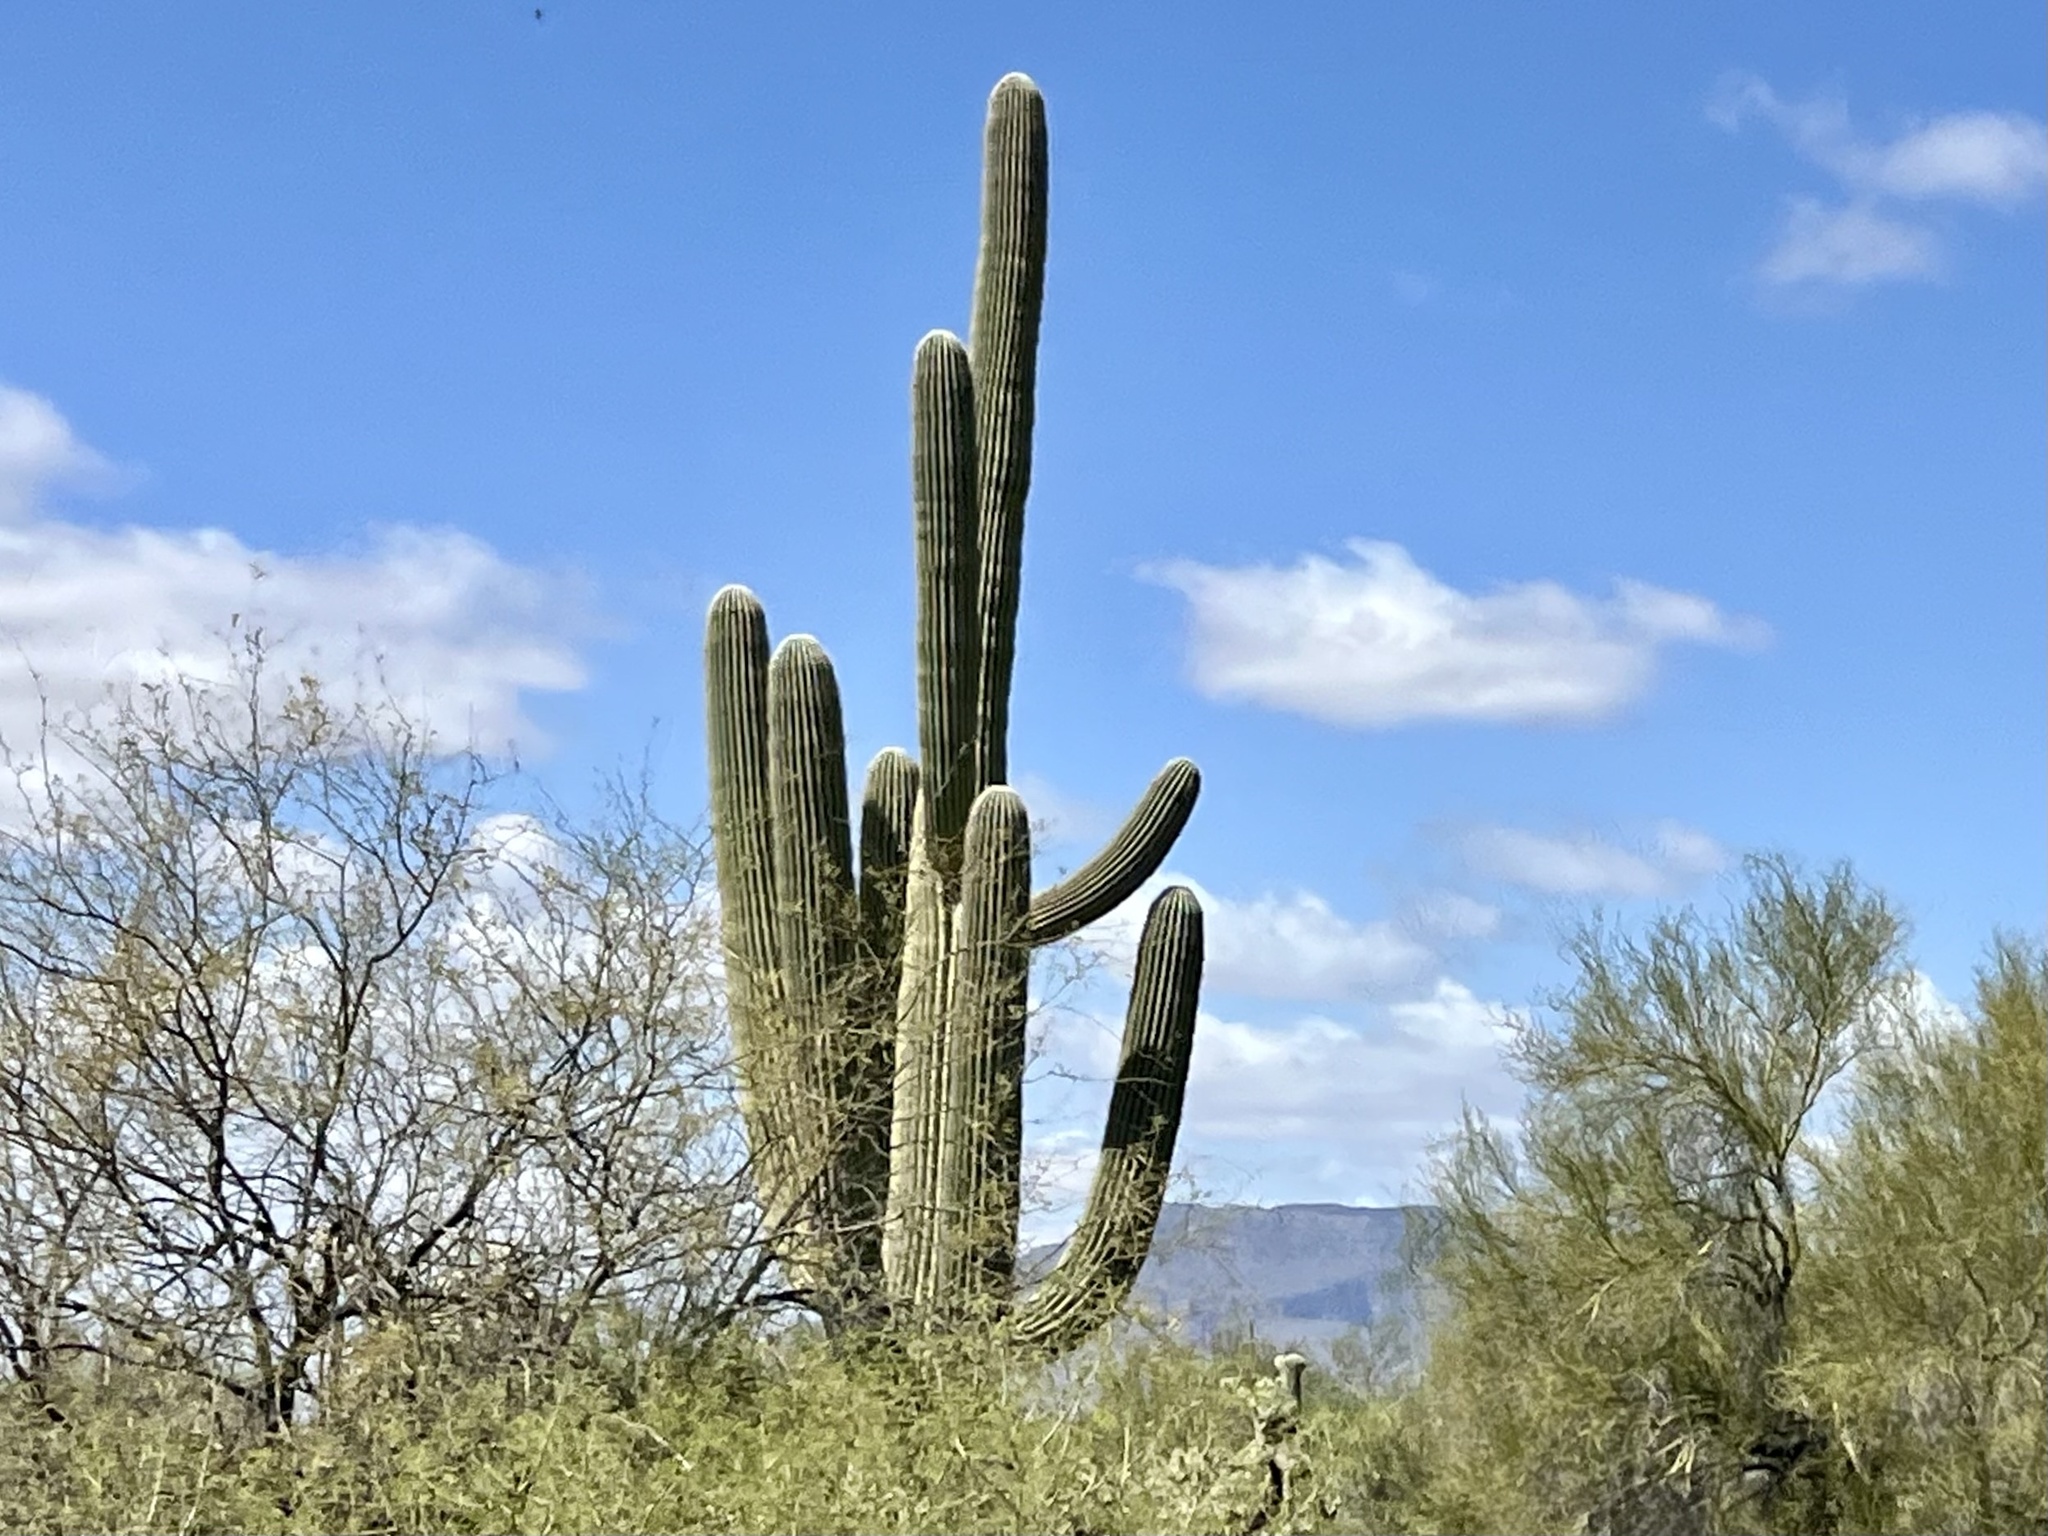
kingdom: Plantae
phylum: Tracheophyta
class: Magnoliopsida
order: Caryophyllales
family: Cactaceae
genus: Carnegiea
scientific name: Carnegiea gigantea
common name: Saguaro
